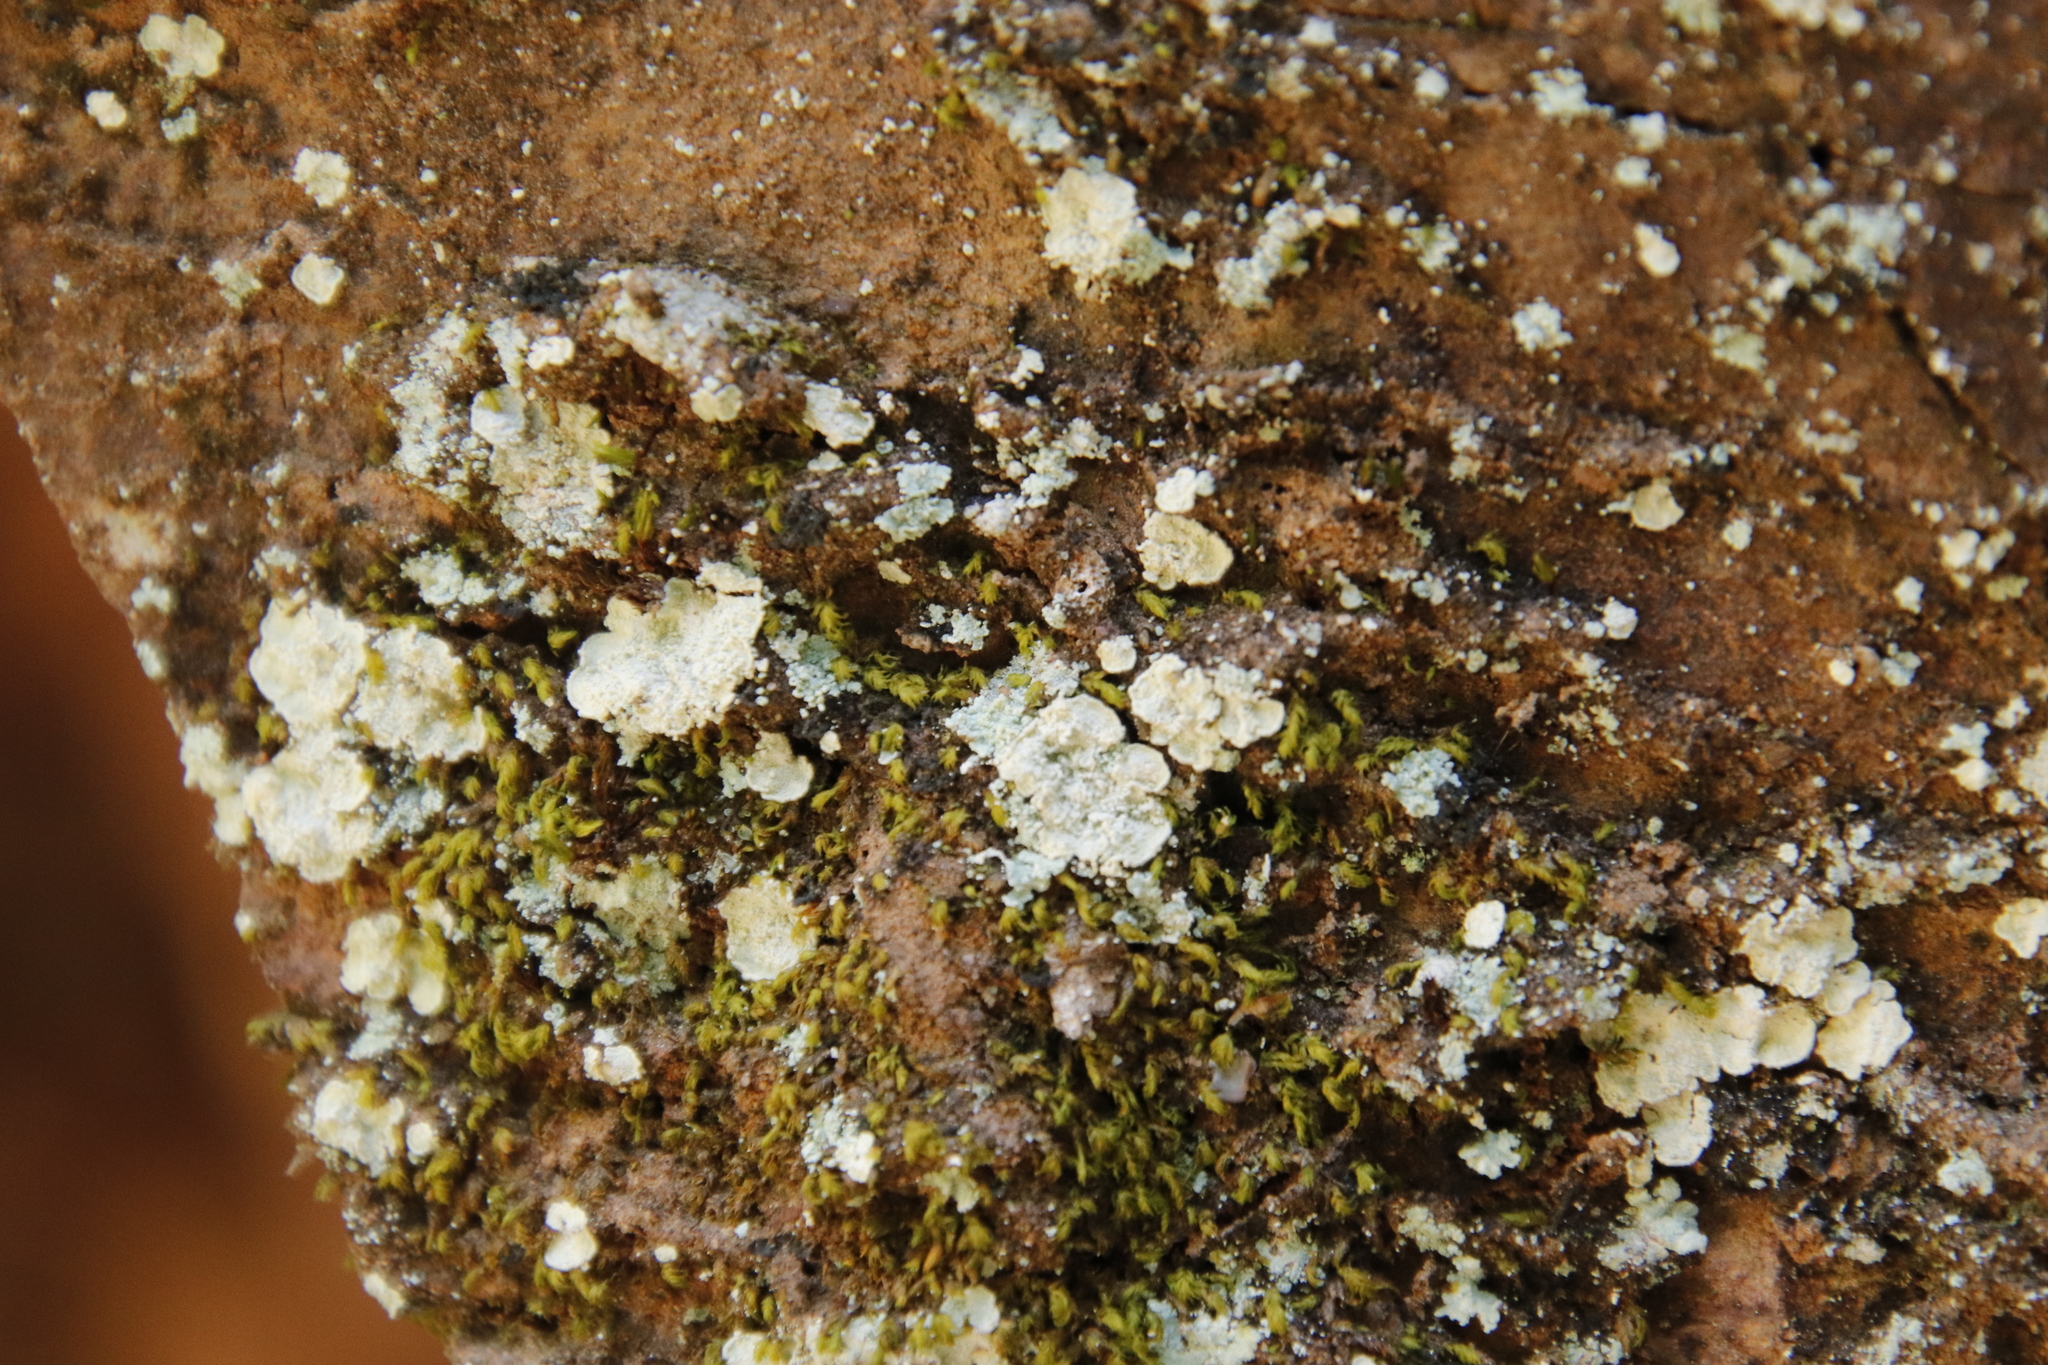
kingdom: Fungi
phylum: Ascomycota
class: Eurotiomycetes
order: Verrucariales
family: Verrucariaceae
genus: Normandina
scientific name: Normandina pulchella
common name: Elf ears lichen
